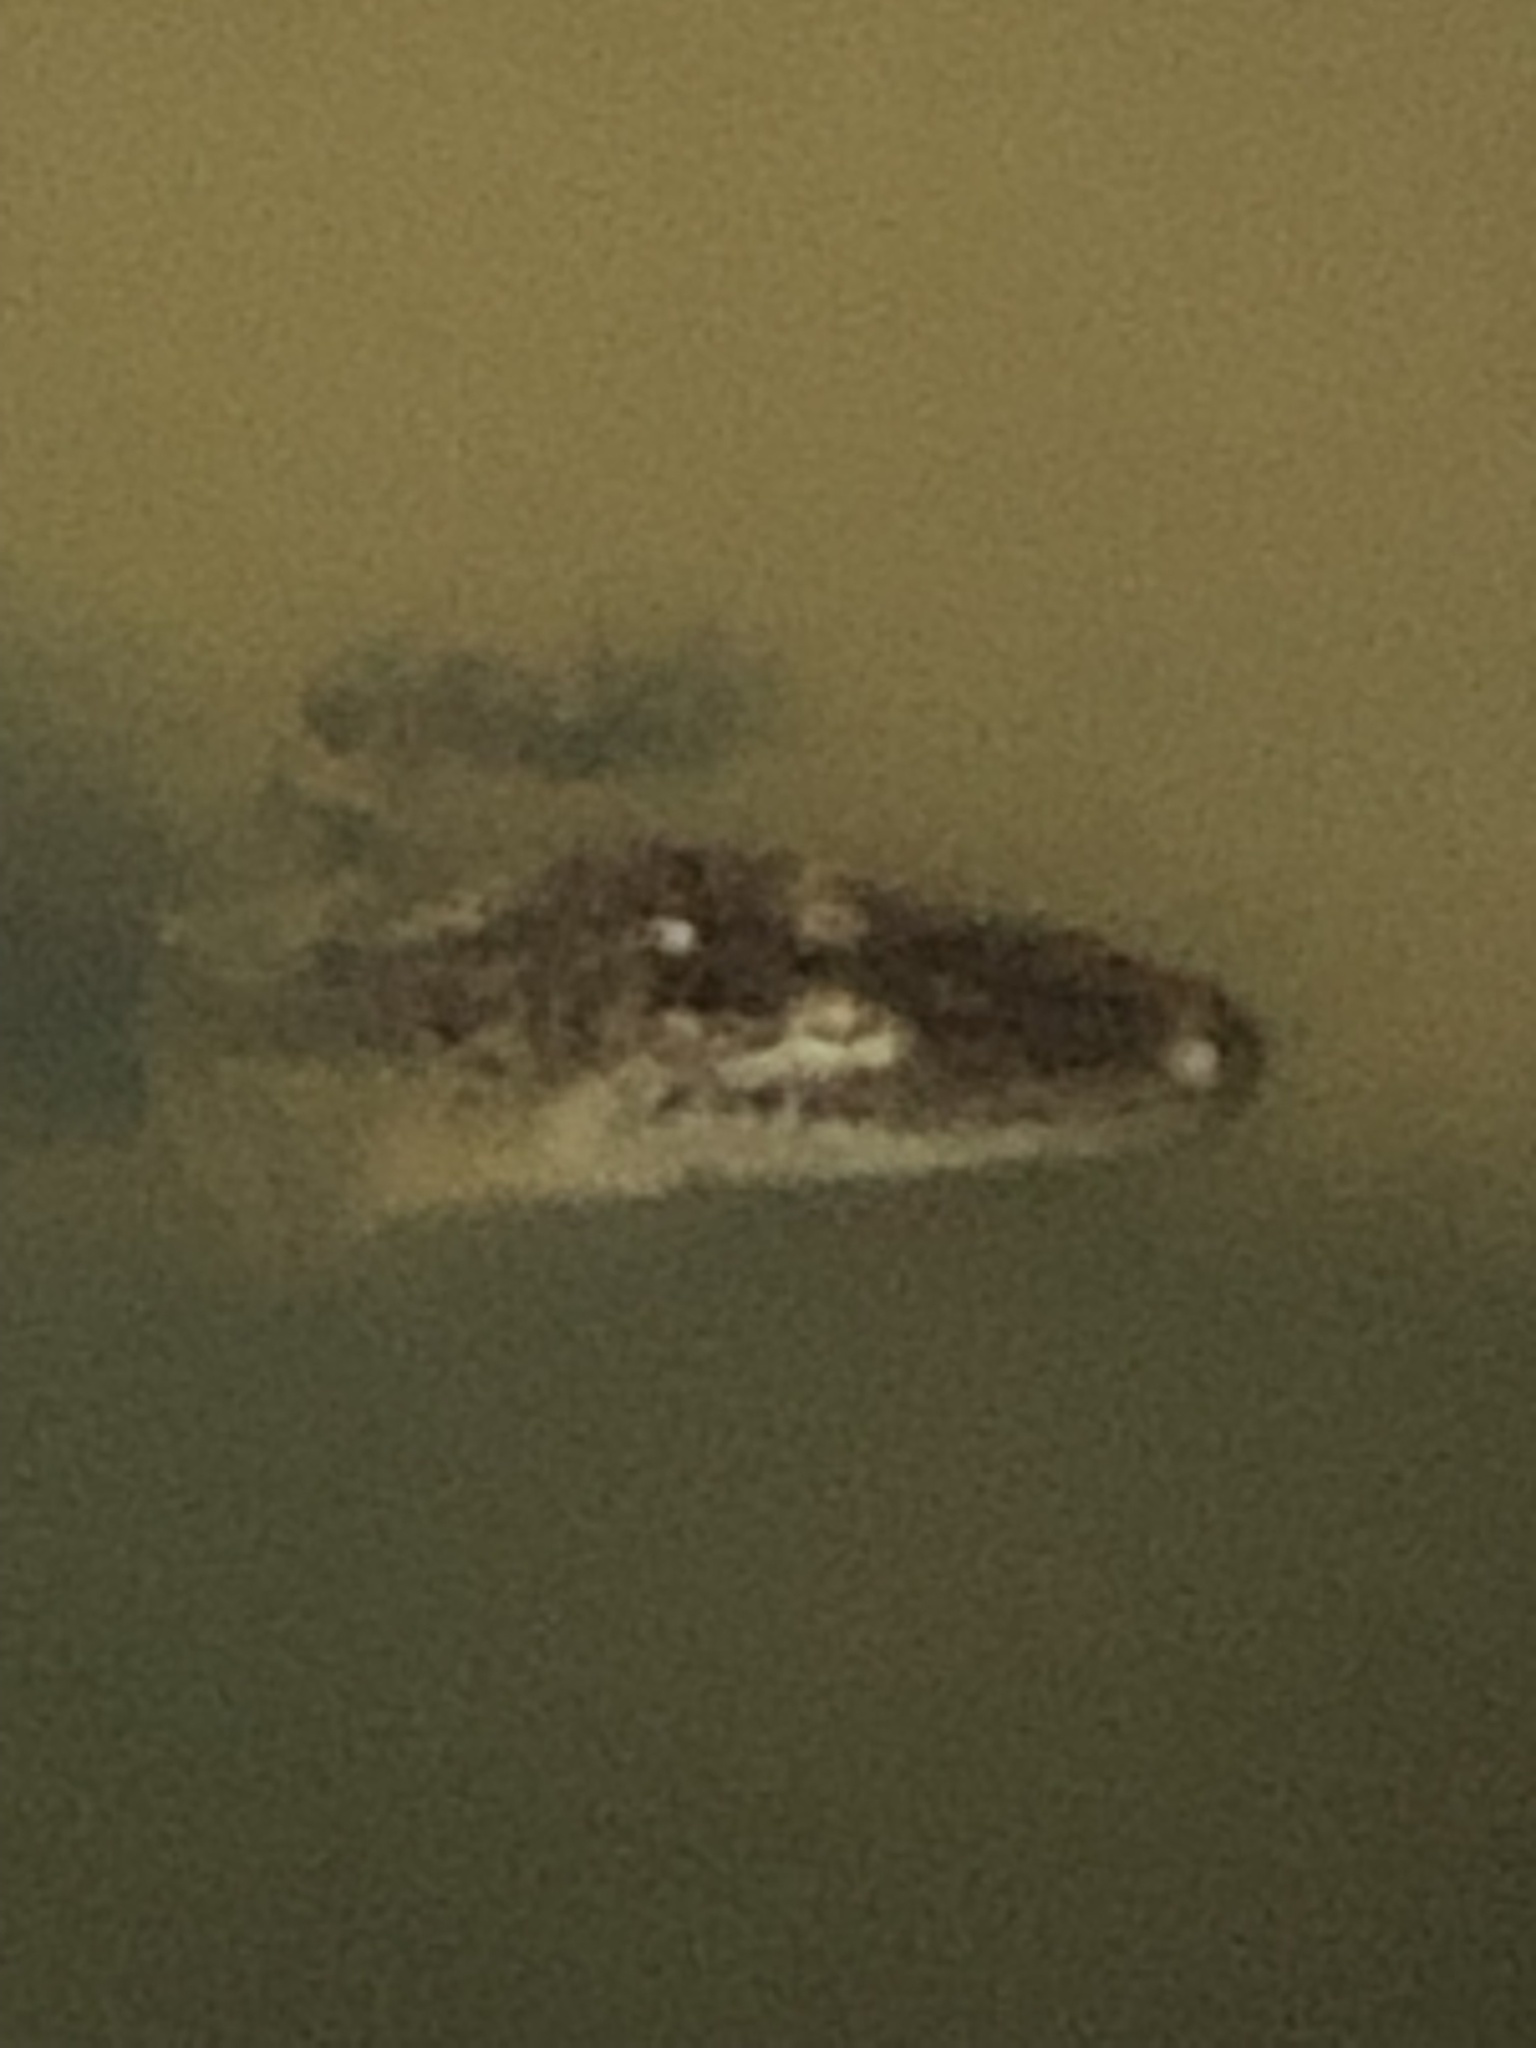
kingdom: Animalia
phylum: Chordata
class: Crocodylia
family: Alligatoridae
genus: Alligator
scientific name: Alligator mississippiensis
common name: American alligator
